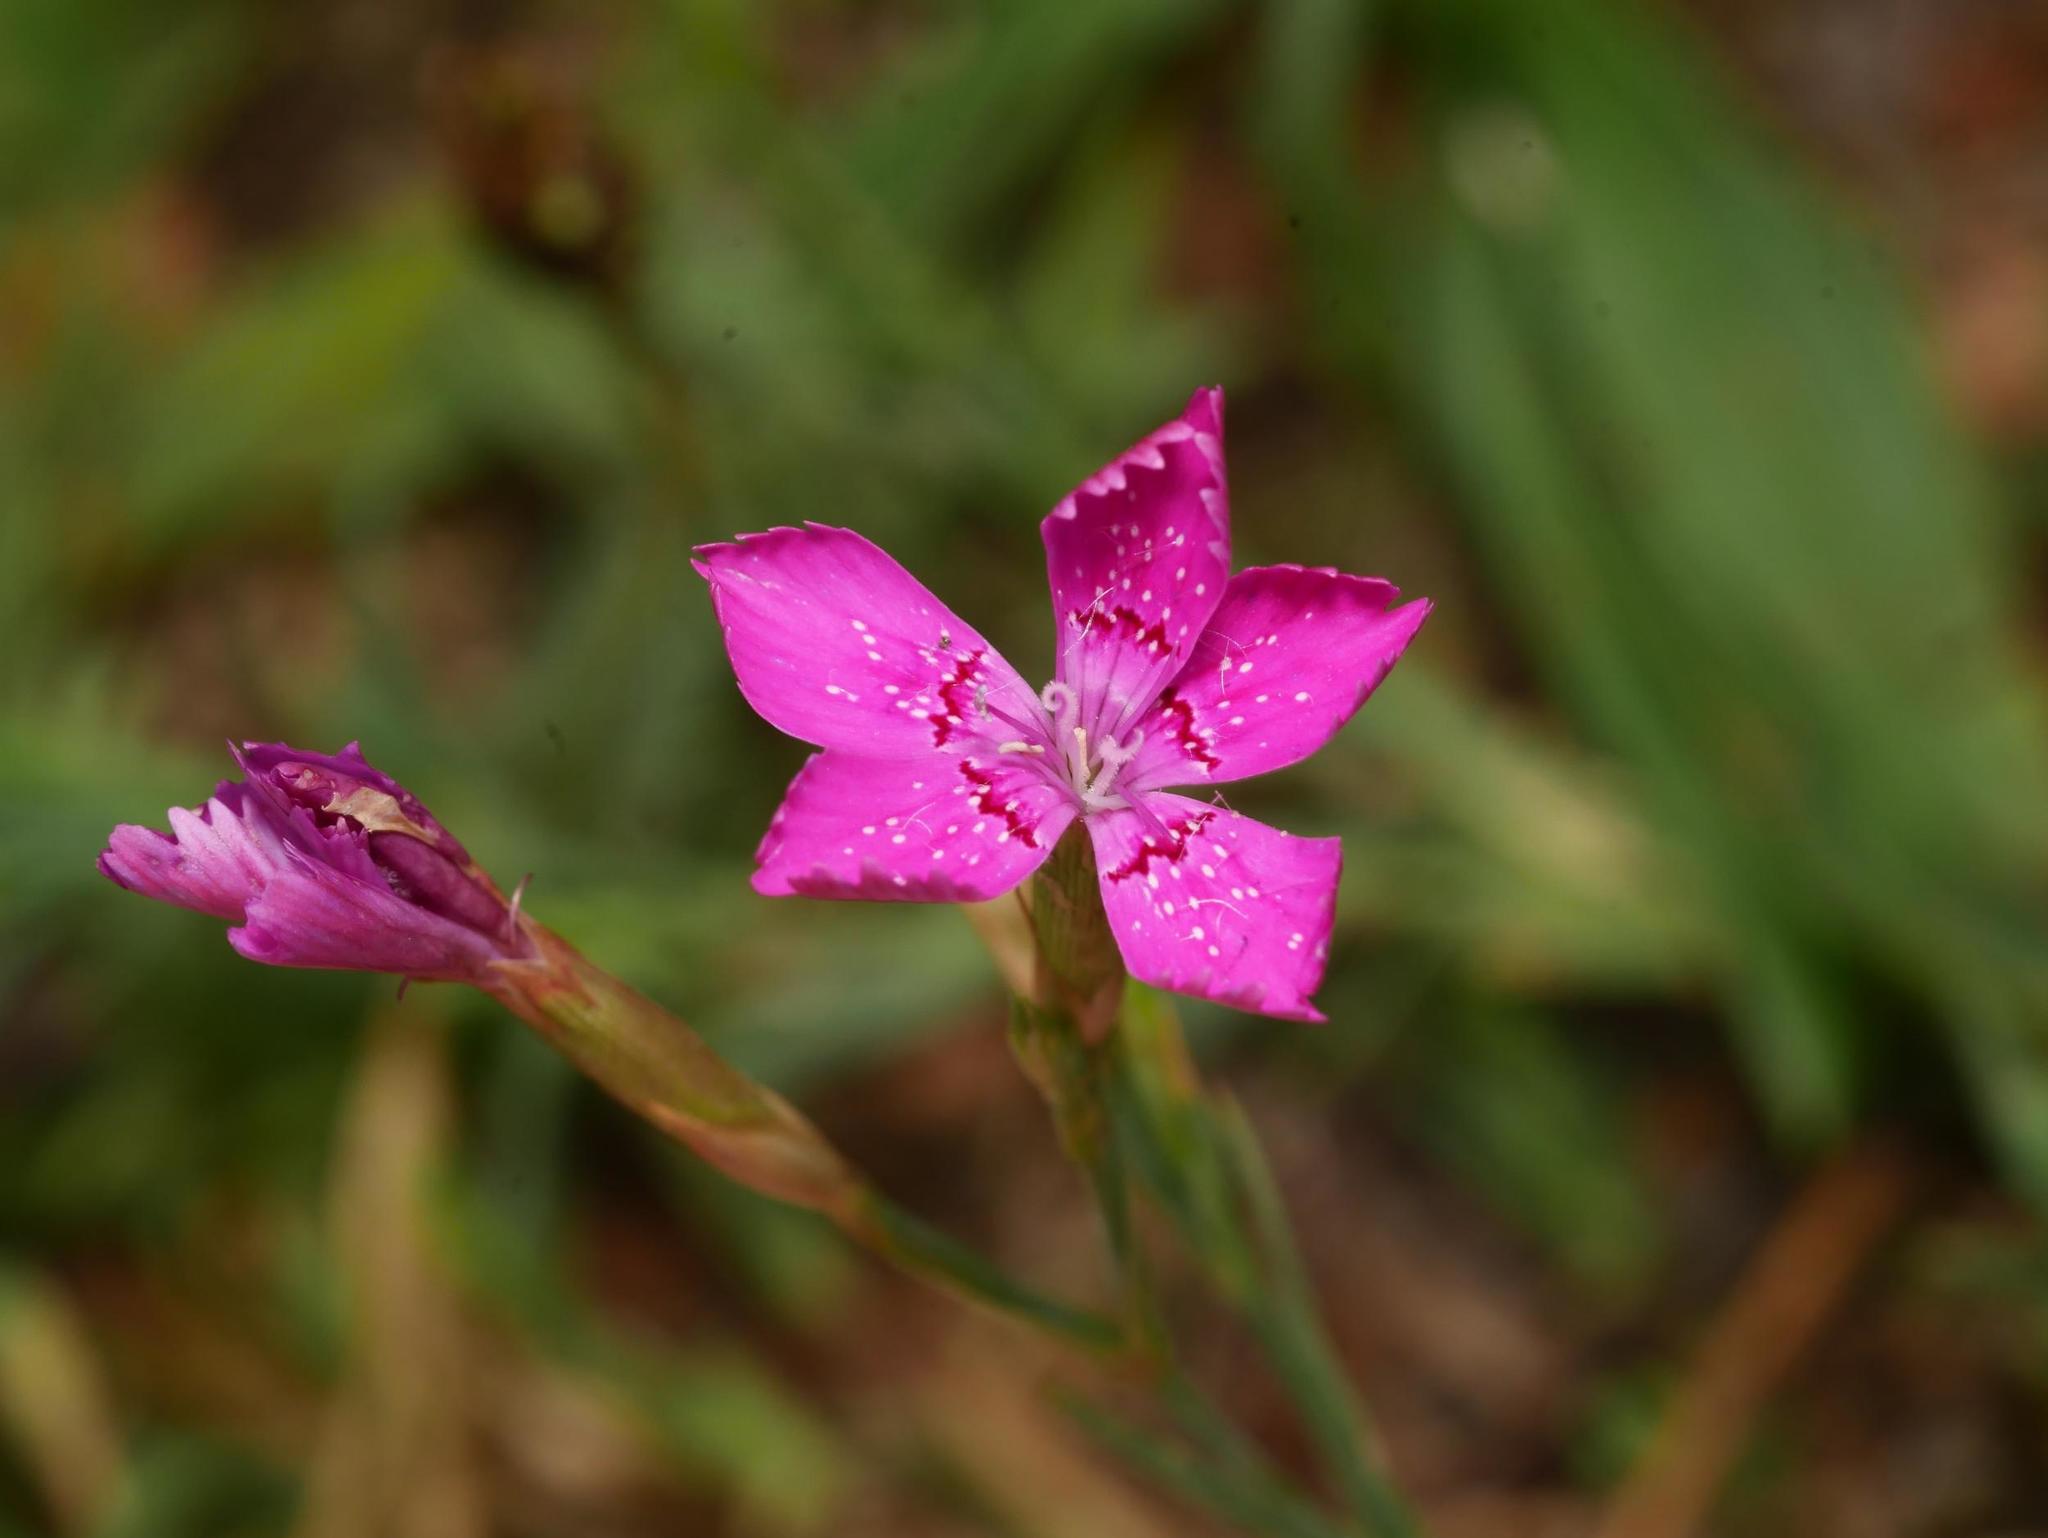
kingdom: Plantae
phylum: Tracheophyta
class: Magnoliopsida
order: Caryophyllales
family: Caryophyllaceae
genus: Dianthus
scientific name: Dianthus deltoides
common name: Maiden pink
